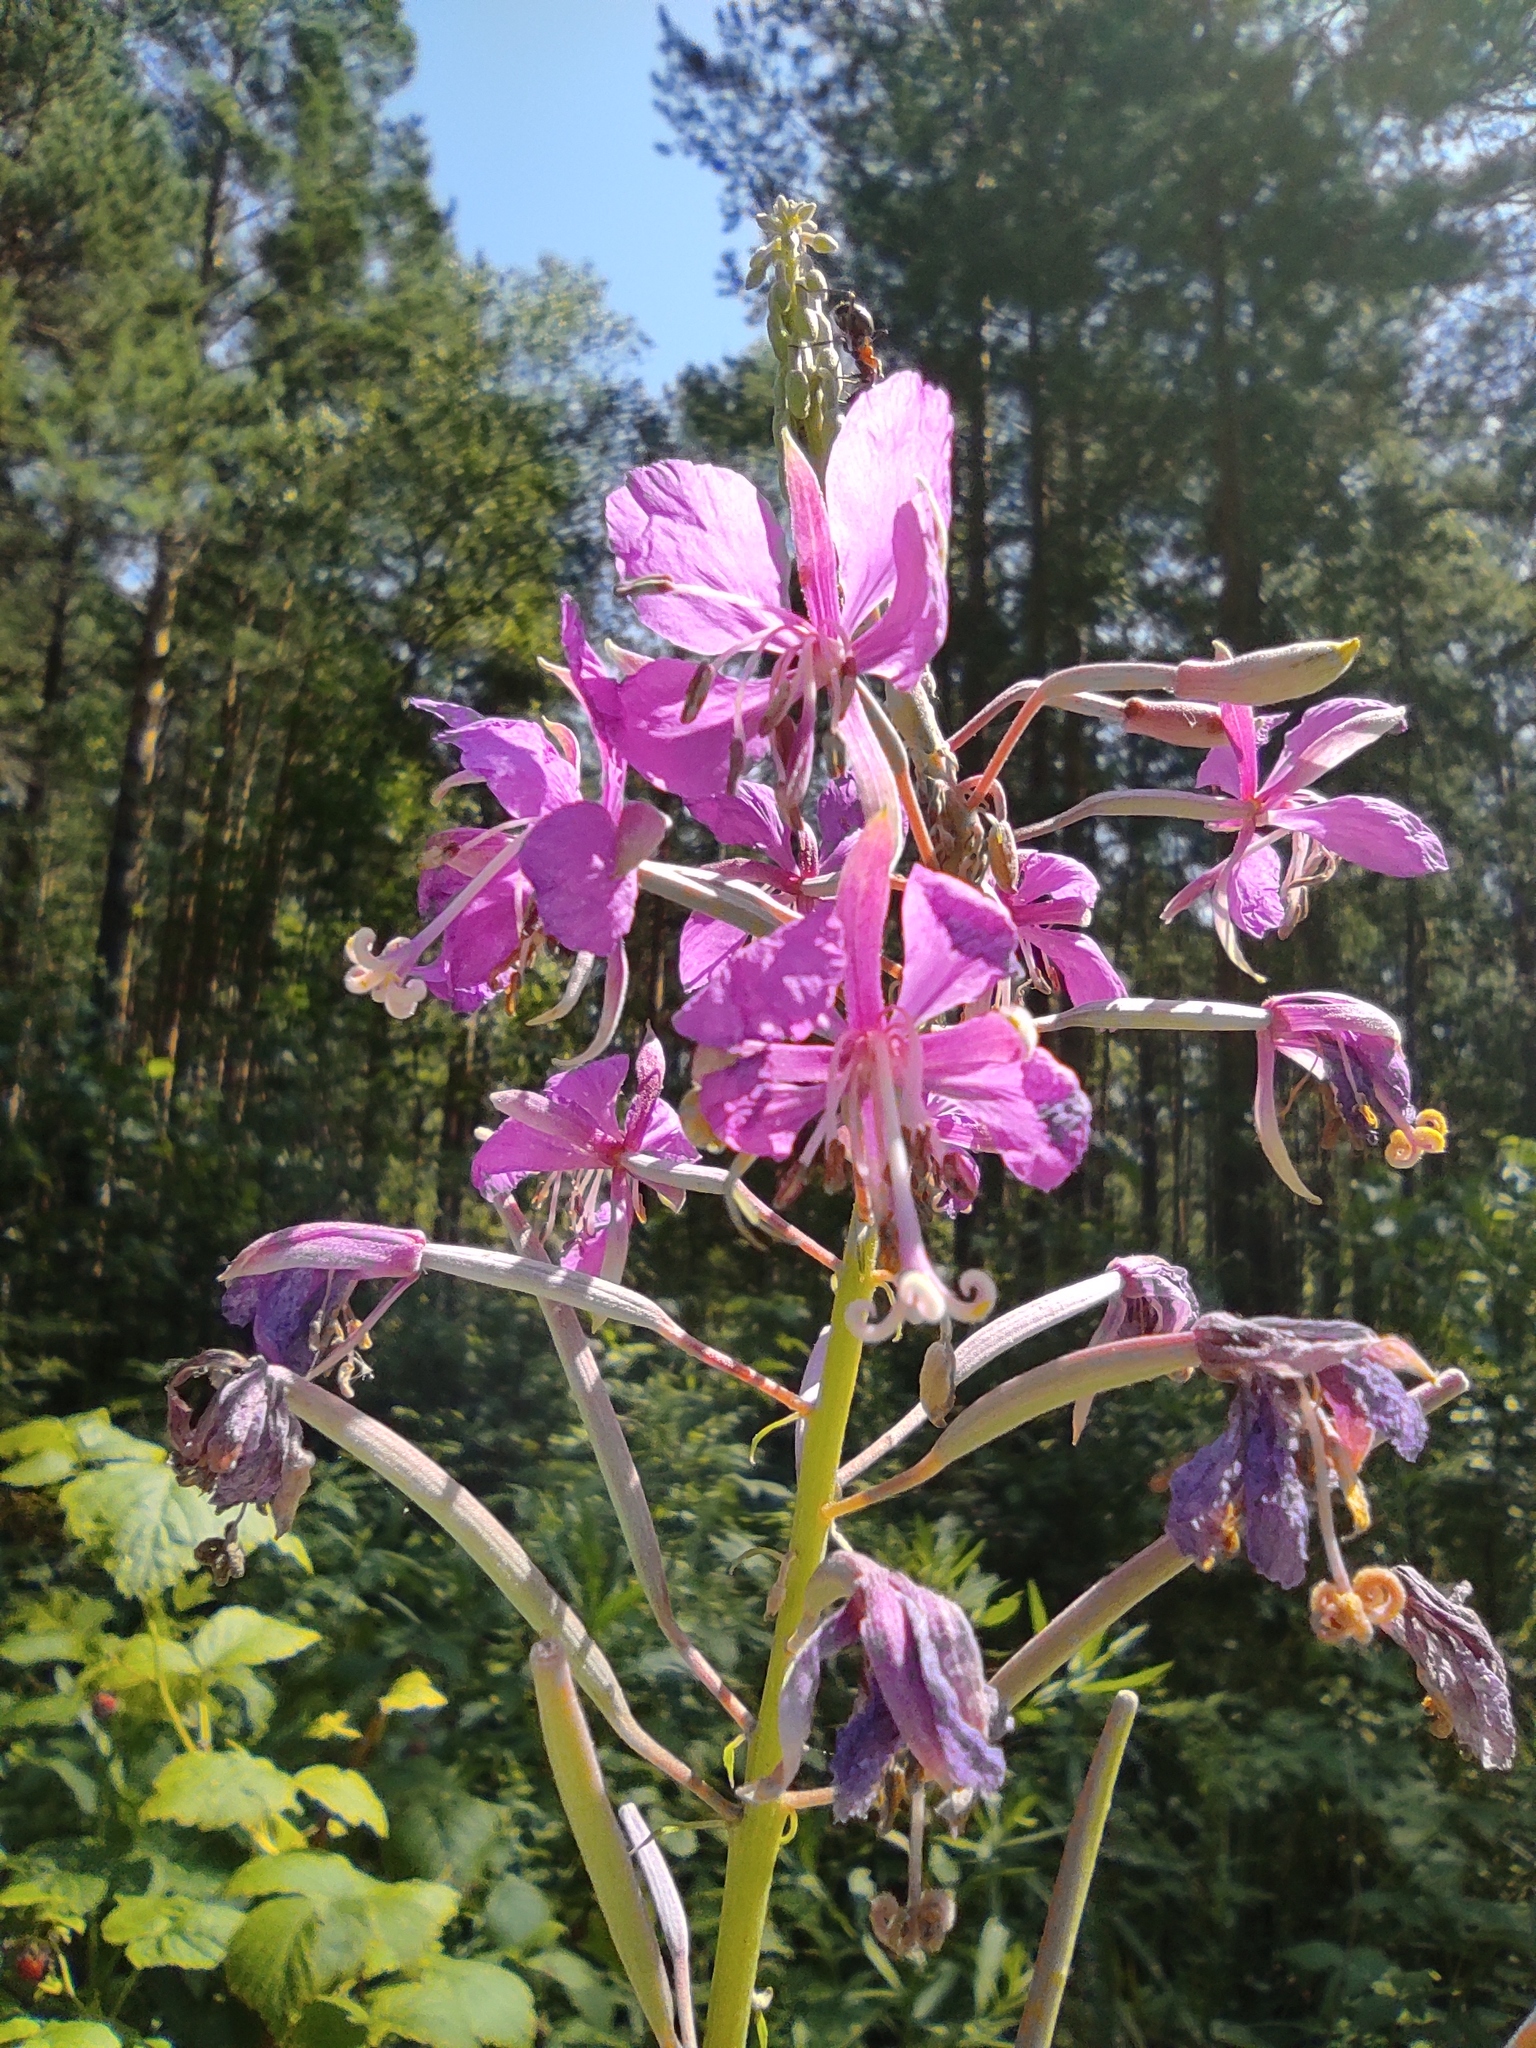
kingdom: Plantae
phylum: Tracheophyta
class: Magnoliopsida
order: Myrtales
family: Onagraceae
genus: Chamaenerion
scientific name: Chamaenerion angustifolium
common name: Fireweed
